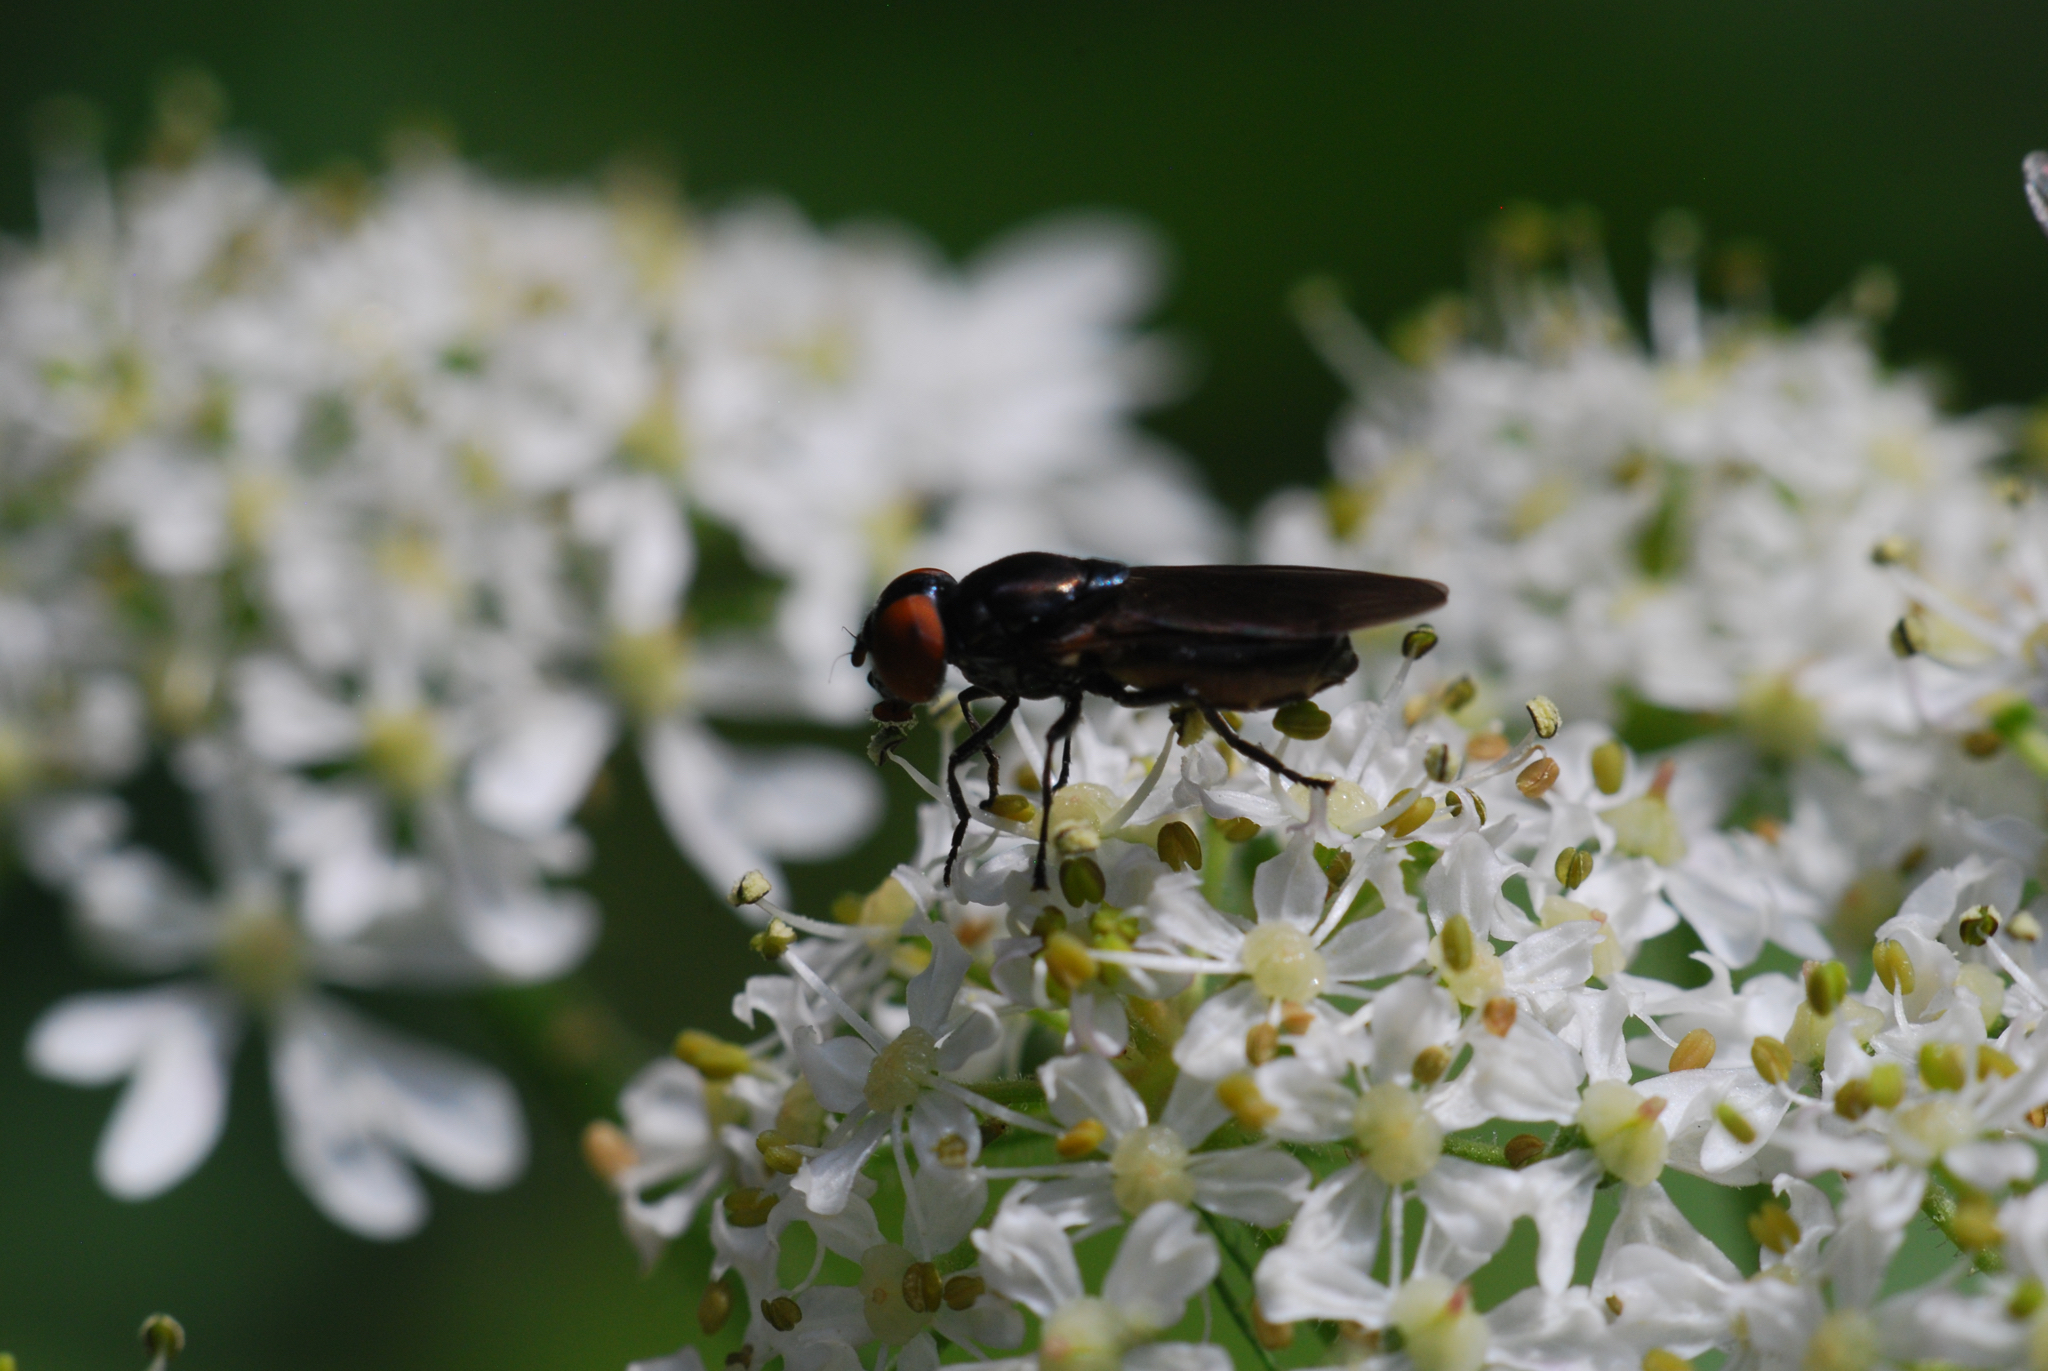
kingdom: Animalia
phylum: Arthropoda
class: Insecta
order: Diptera
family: Syrphidae
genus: Chrysogaster
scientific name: Chrysogaster solstitialis
